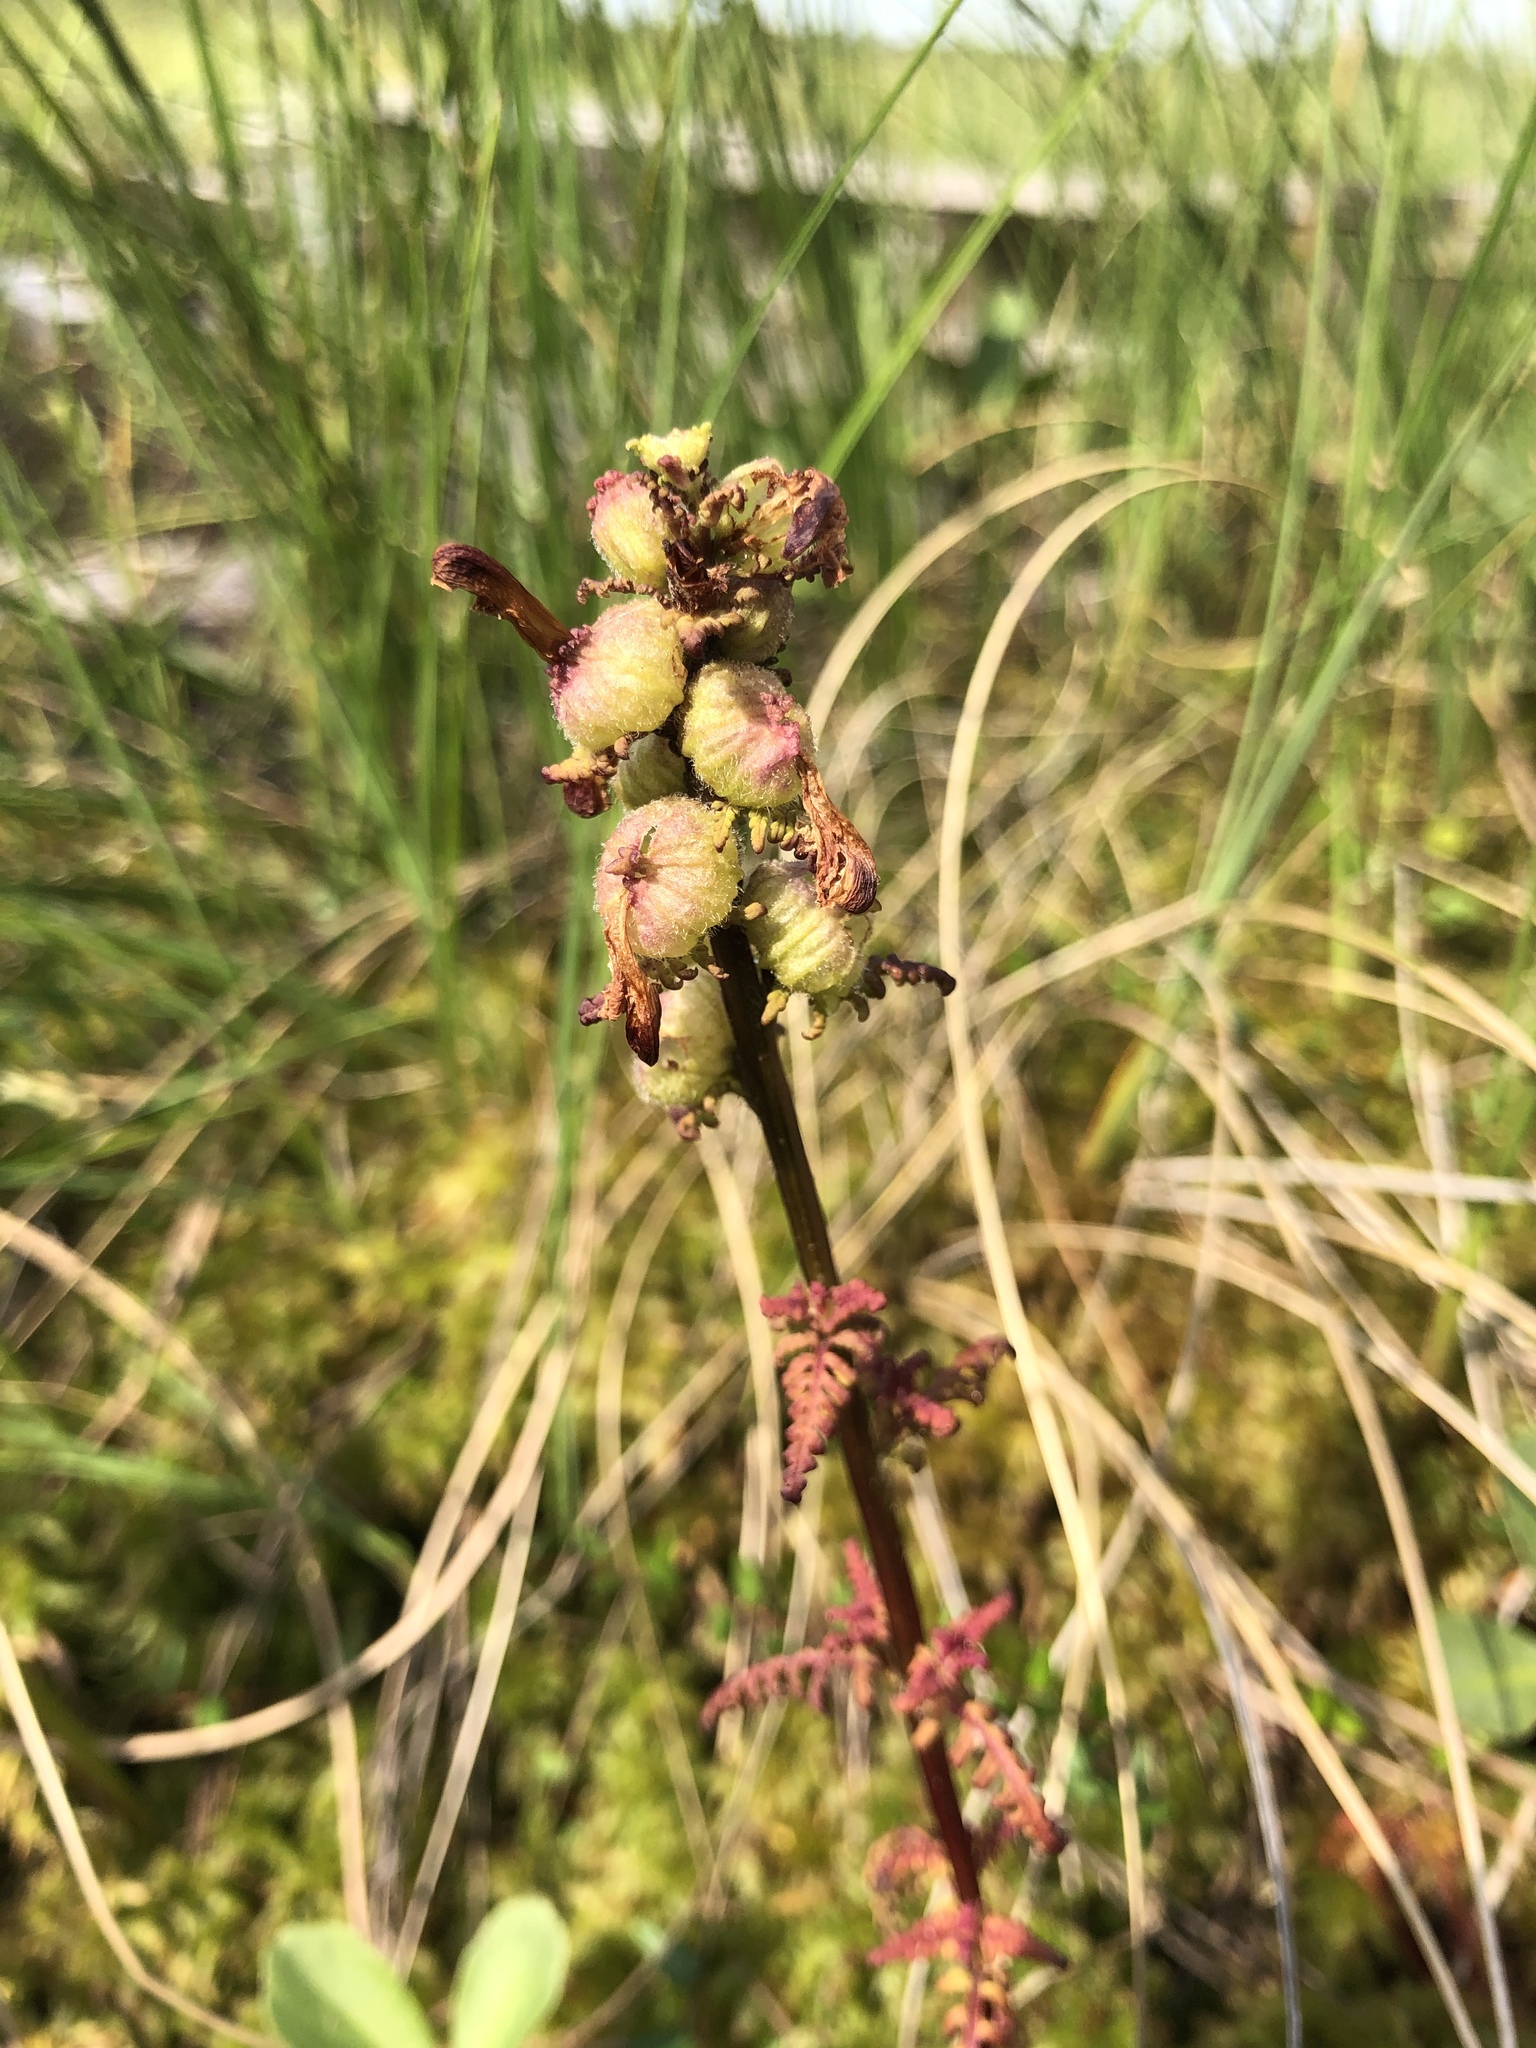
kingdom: Plantae
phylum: Tracheophyta
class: Magnoliopsida
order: Lamiales
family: Orobanchaceae
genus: Pedicularis
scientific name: Pedicularis palustris
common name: Marsh lousewort
